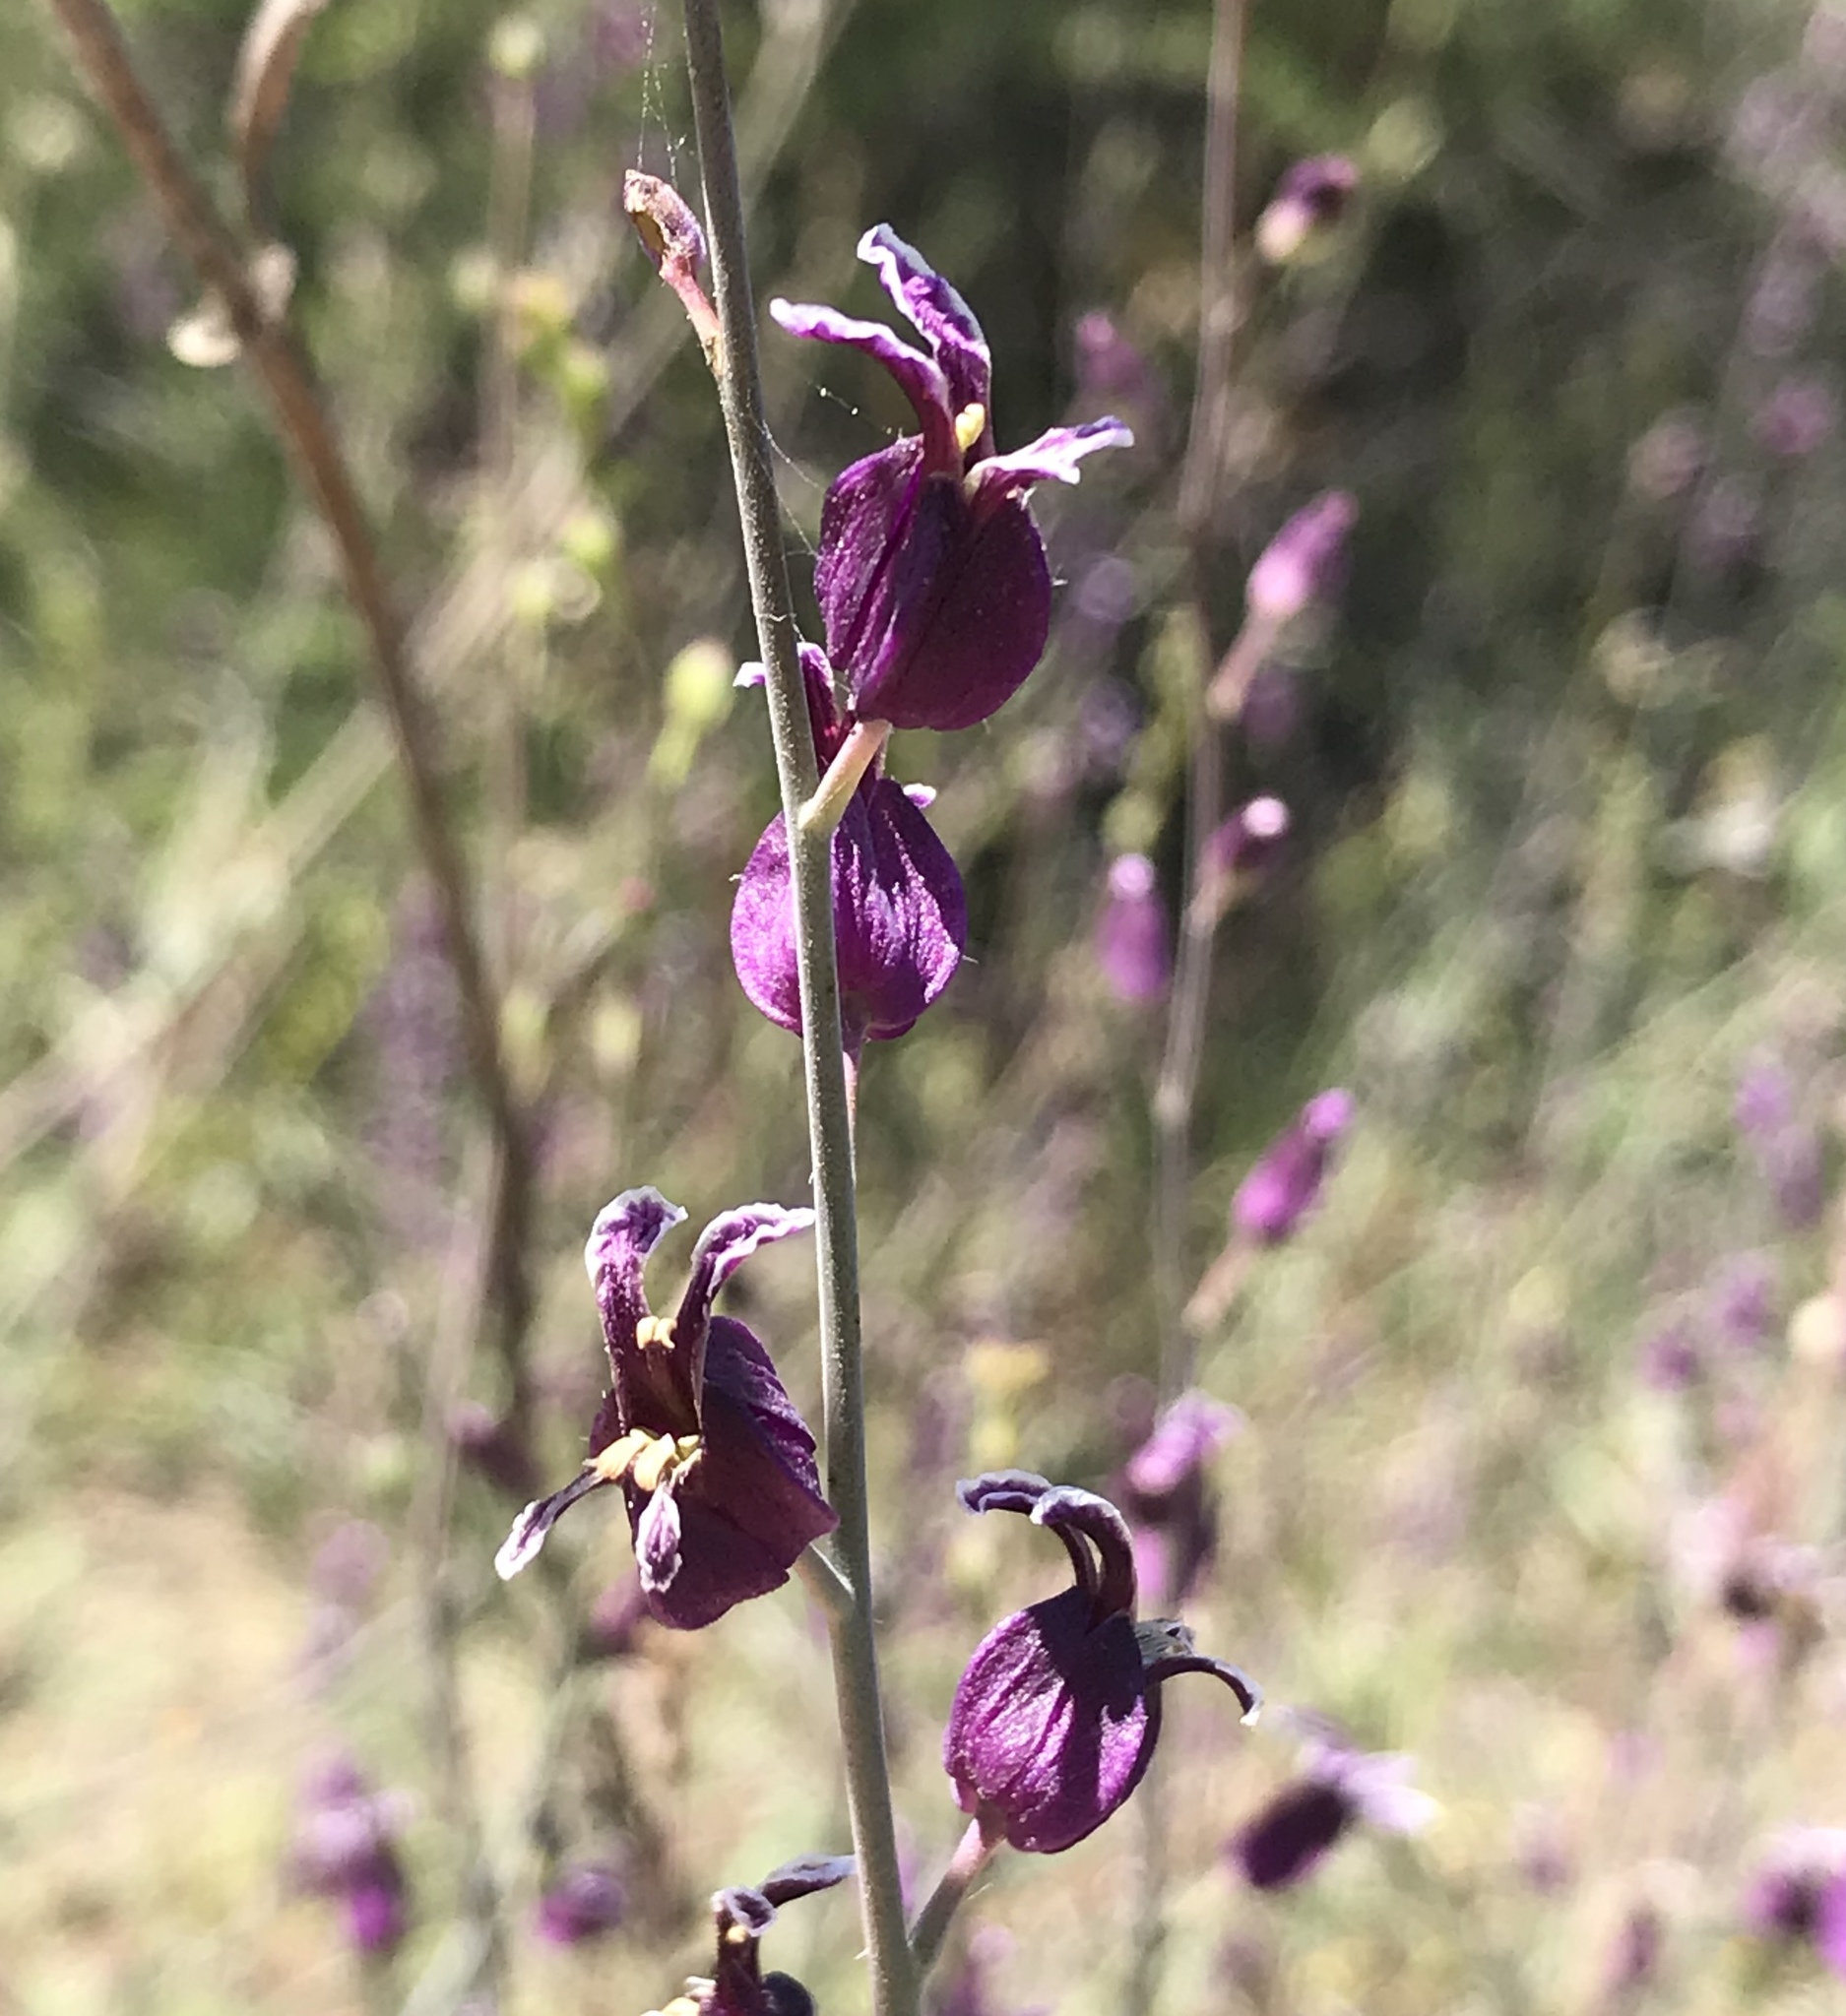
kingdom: Plantae
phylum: Tracheophyta
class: Magnoliopsida
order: Brassicales
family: Brassicaceae
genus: Streptanthus
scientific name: Streptanthus glandulosus
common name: Jewel-flower
